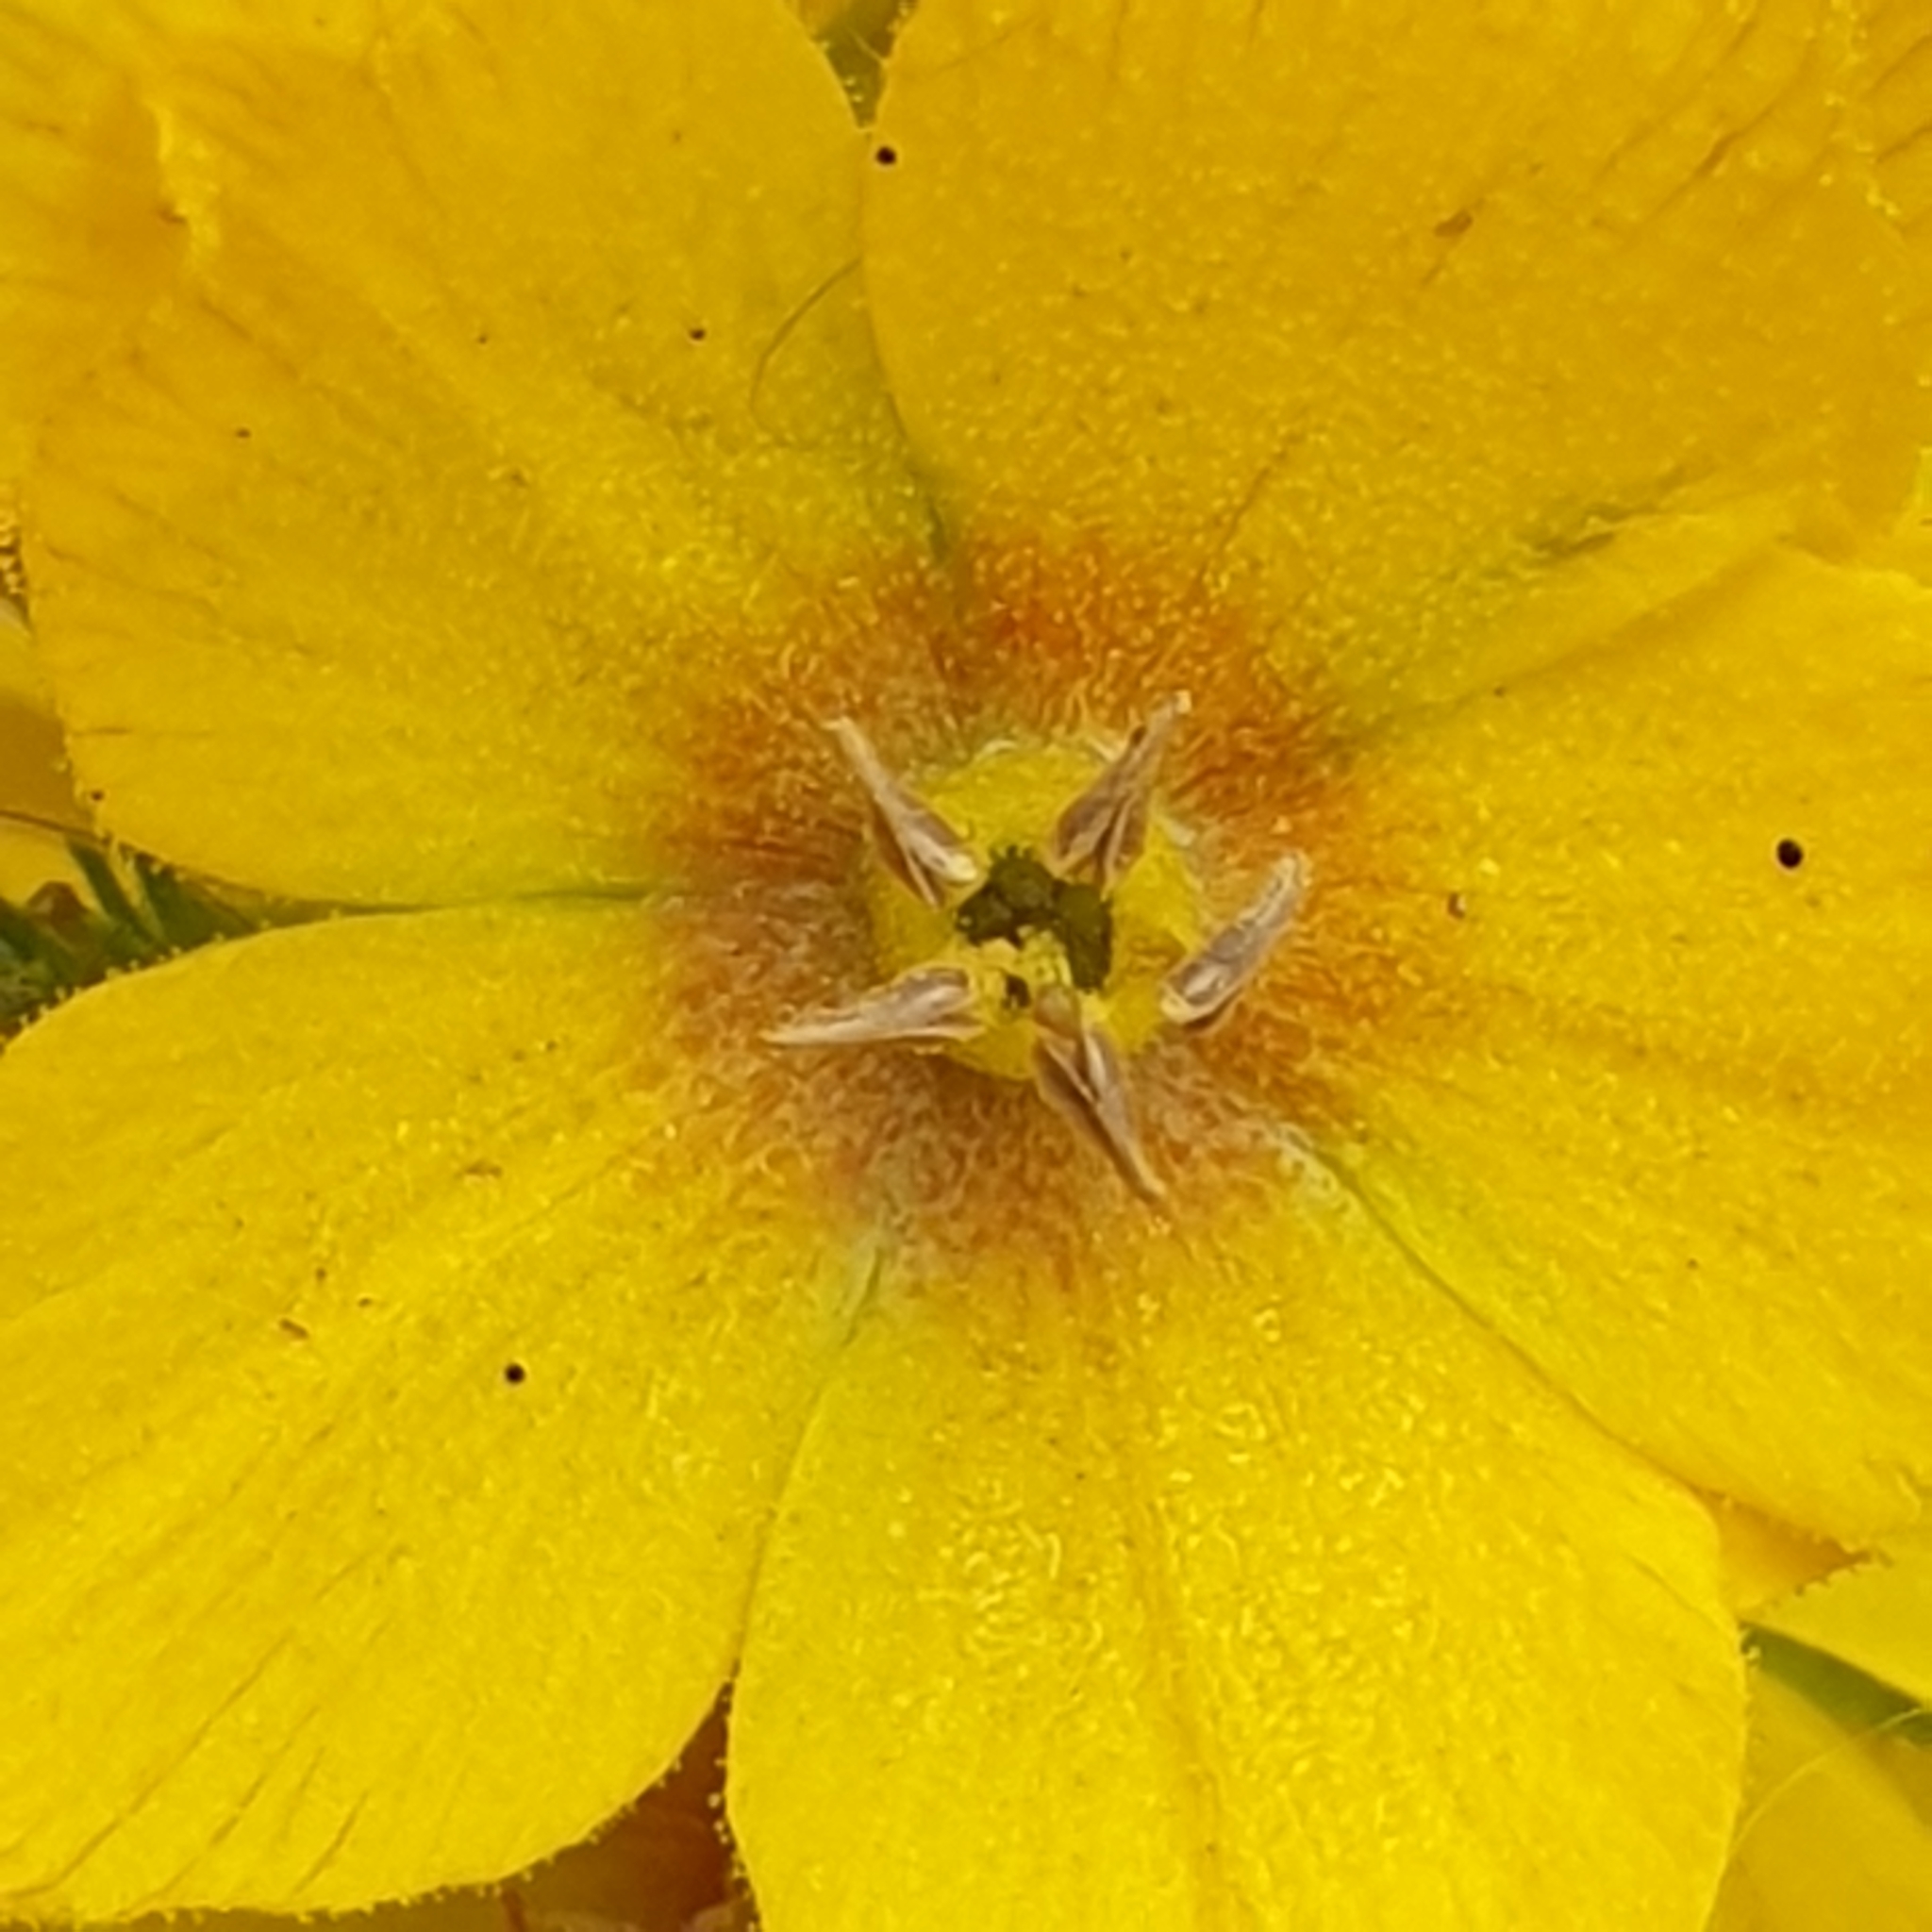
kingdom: Plantae
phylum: Tracheophyta
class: Magnoliopsida
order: Ericales
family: Primulaceae
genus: Lysimachia
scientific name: Lysimachia punctata
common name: Dotted loosestrife
